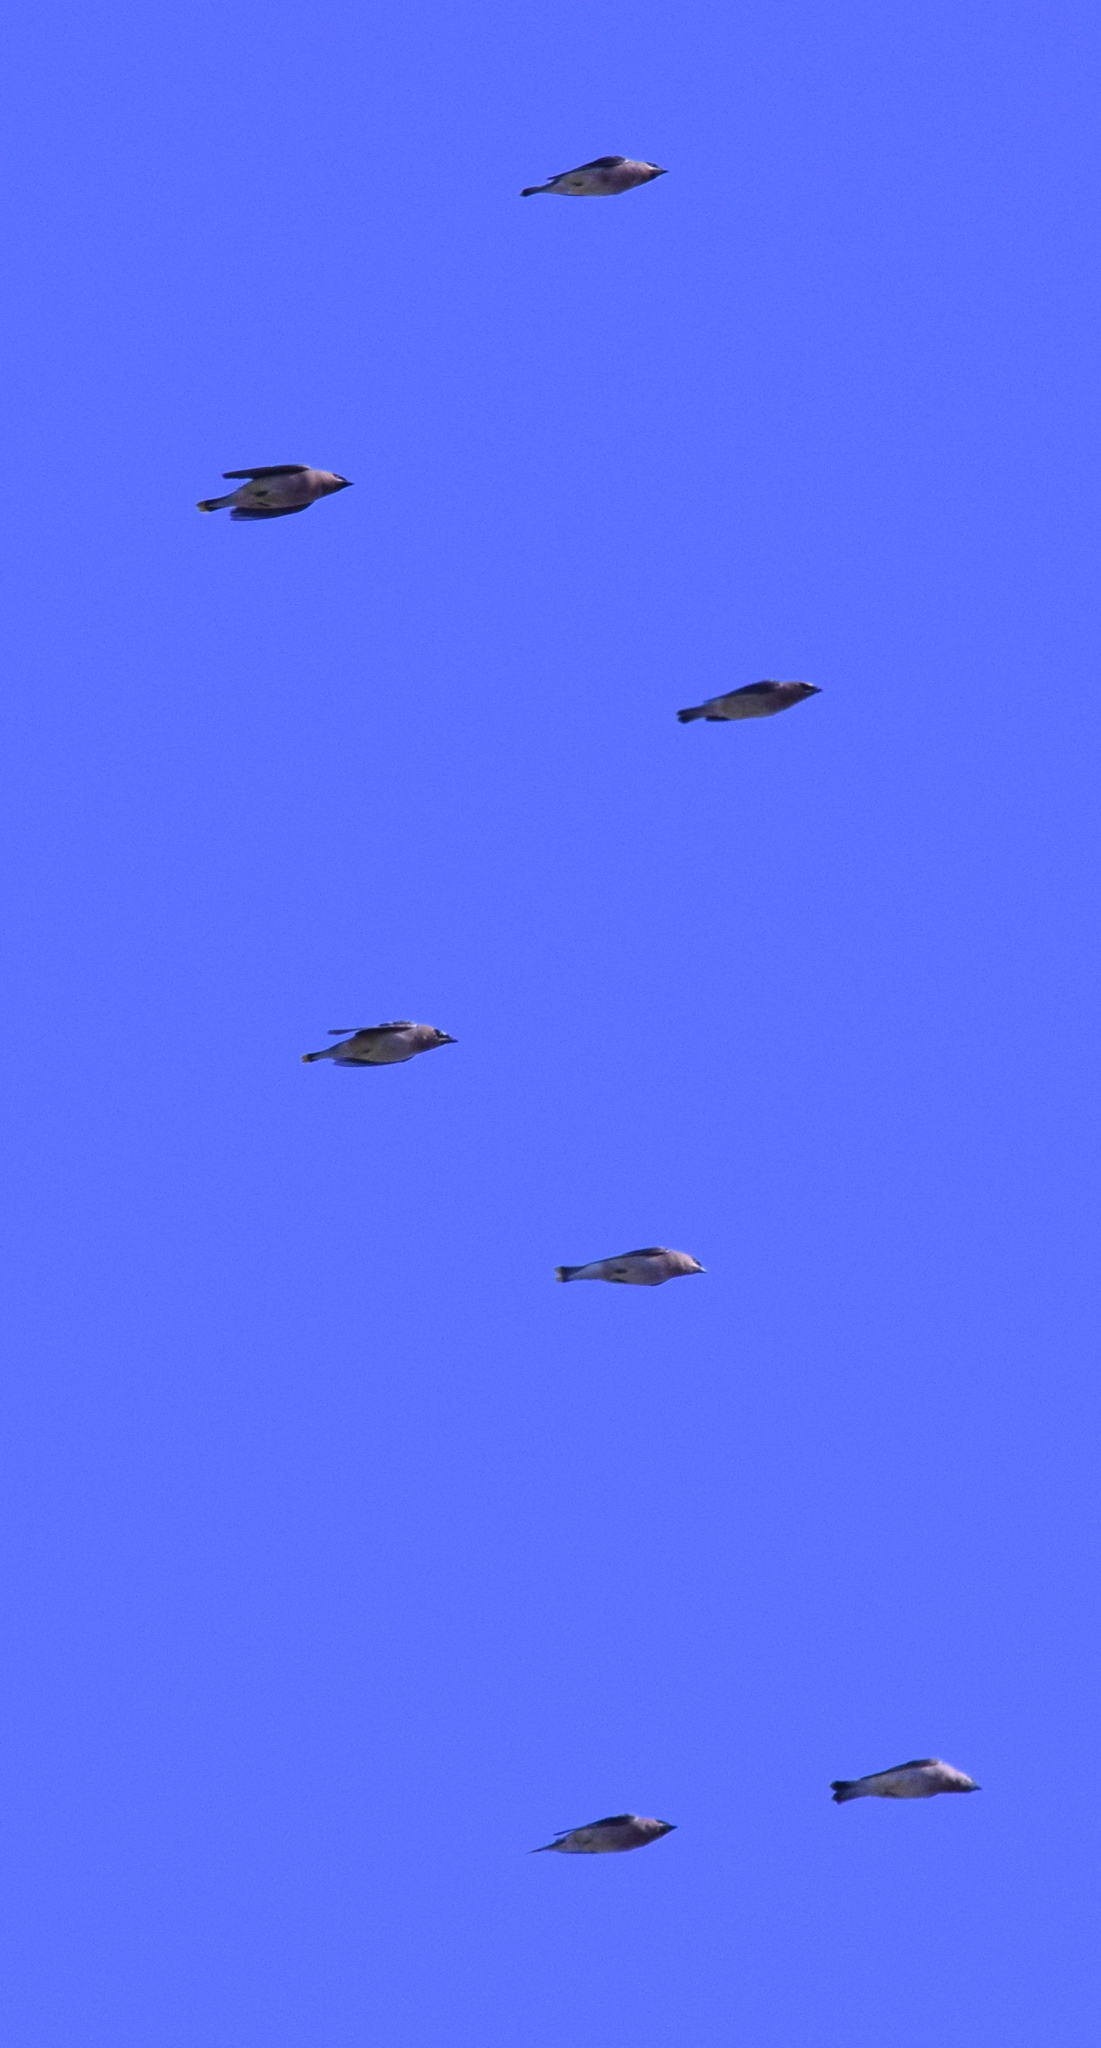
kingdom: Animalia
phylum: Chordata
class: Aves
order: Passeriformes
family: Bombycillidae
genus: Bombycilla
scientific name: Bombycilla cedrorum
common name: Cedar waxwing
